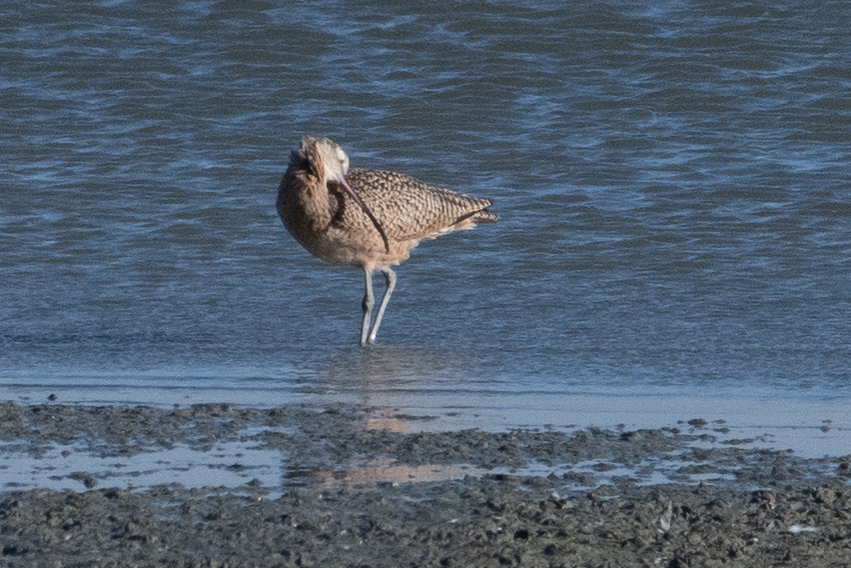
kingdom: Animalia
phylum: Chordata
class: Aves
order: Charadriiformes
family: Scolopacidae
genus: Numenius
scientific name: Numenius americanus
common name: Long-billed curlew
